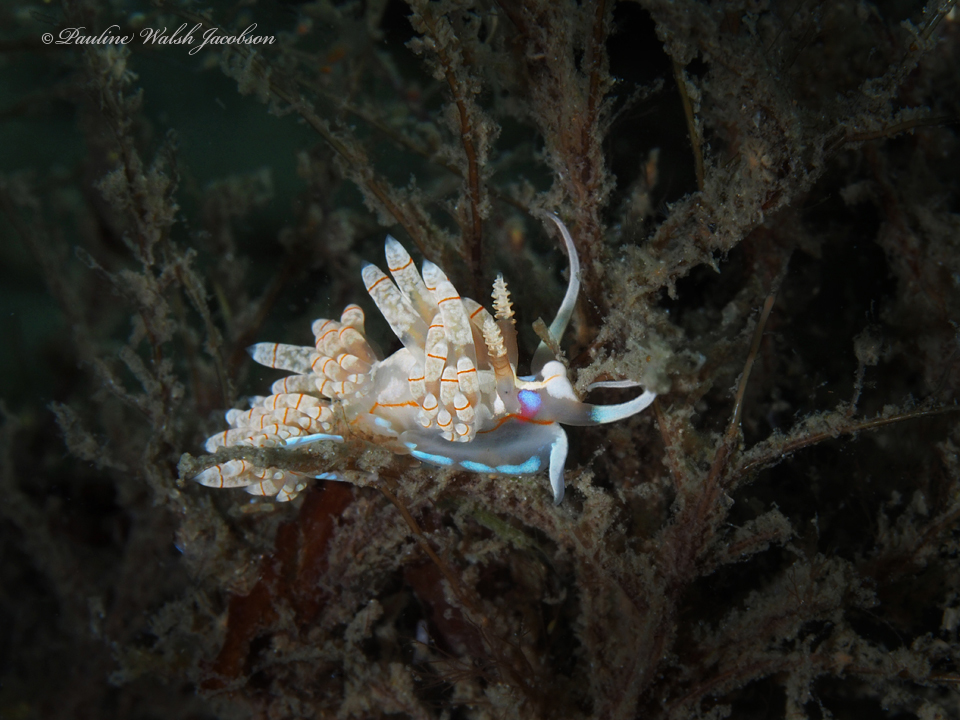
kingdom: Animalia
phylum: Mollusca
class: Gastropoda
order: Nudibranchia
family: Myrrhinidae
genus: Dondice
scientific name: Dondice freddiemercuryi
